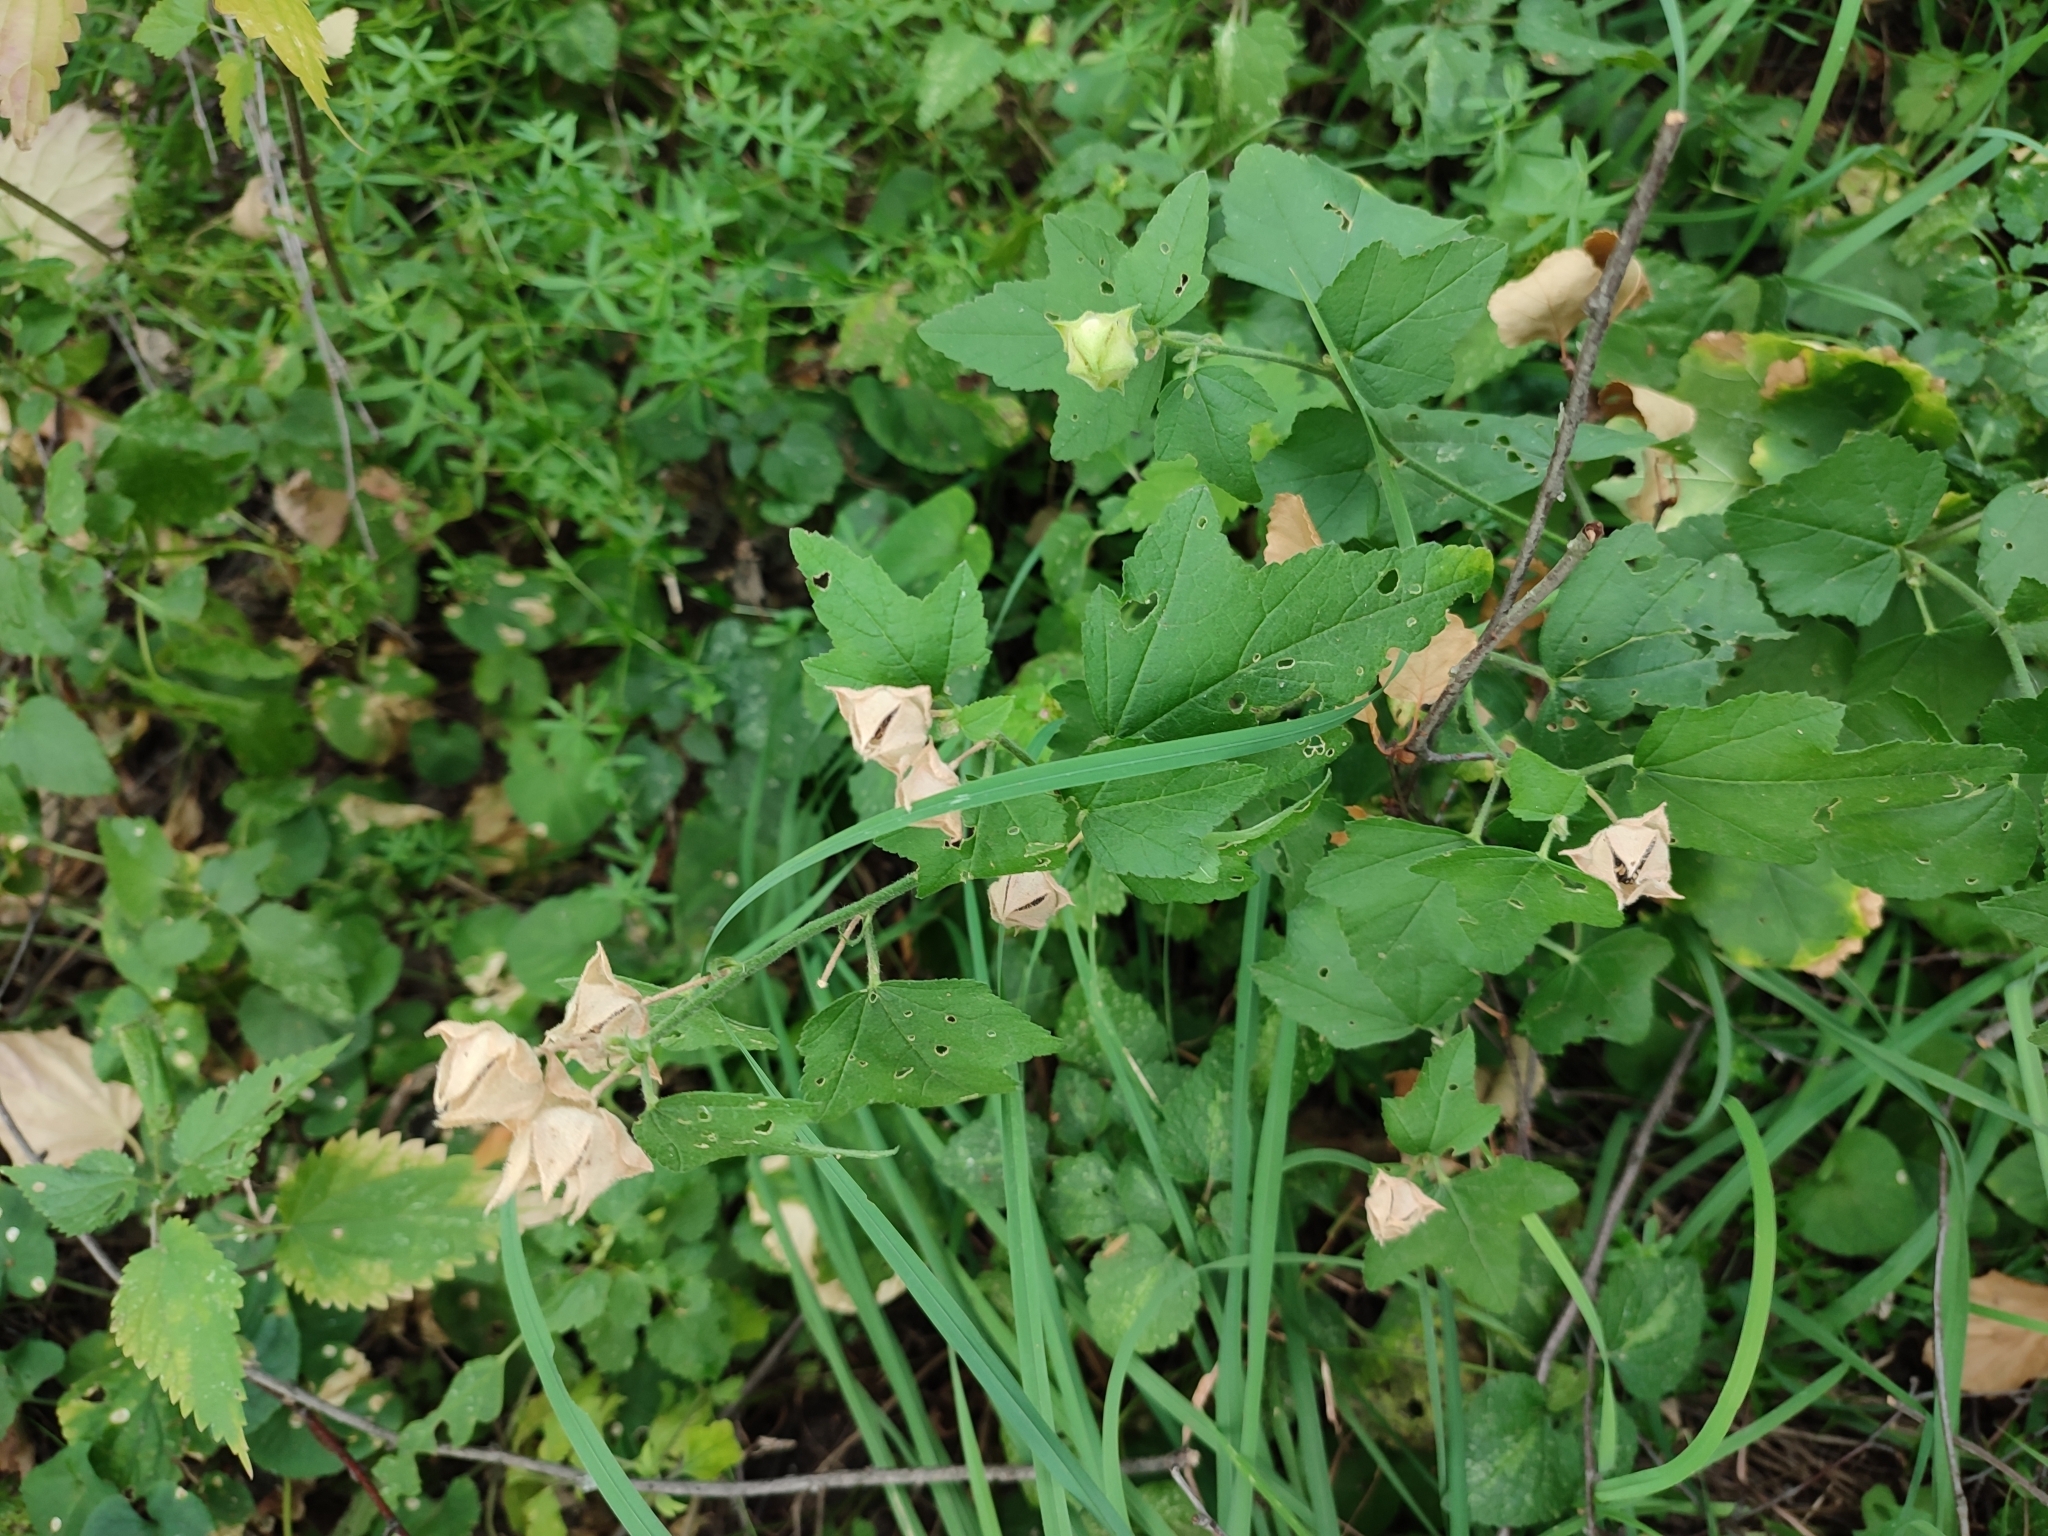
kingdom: Plantae
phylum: Tracheophyta
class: Magnoliopsida
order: Malvales
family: Malvaceae
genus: Malva
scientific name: Malva thuringiaca
